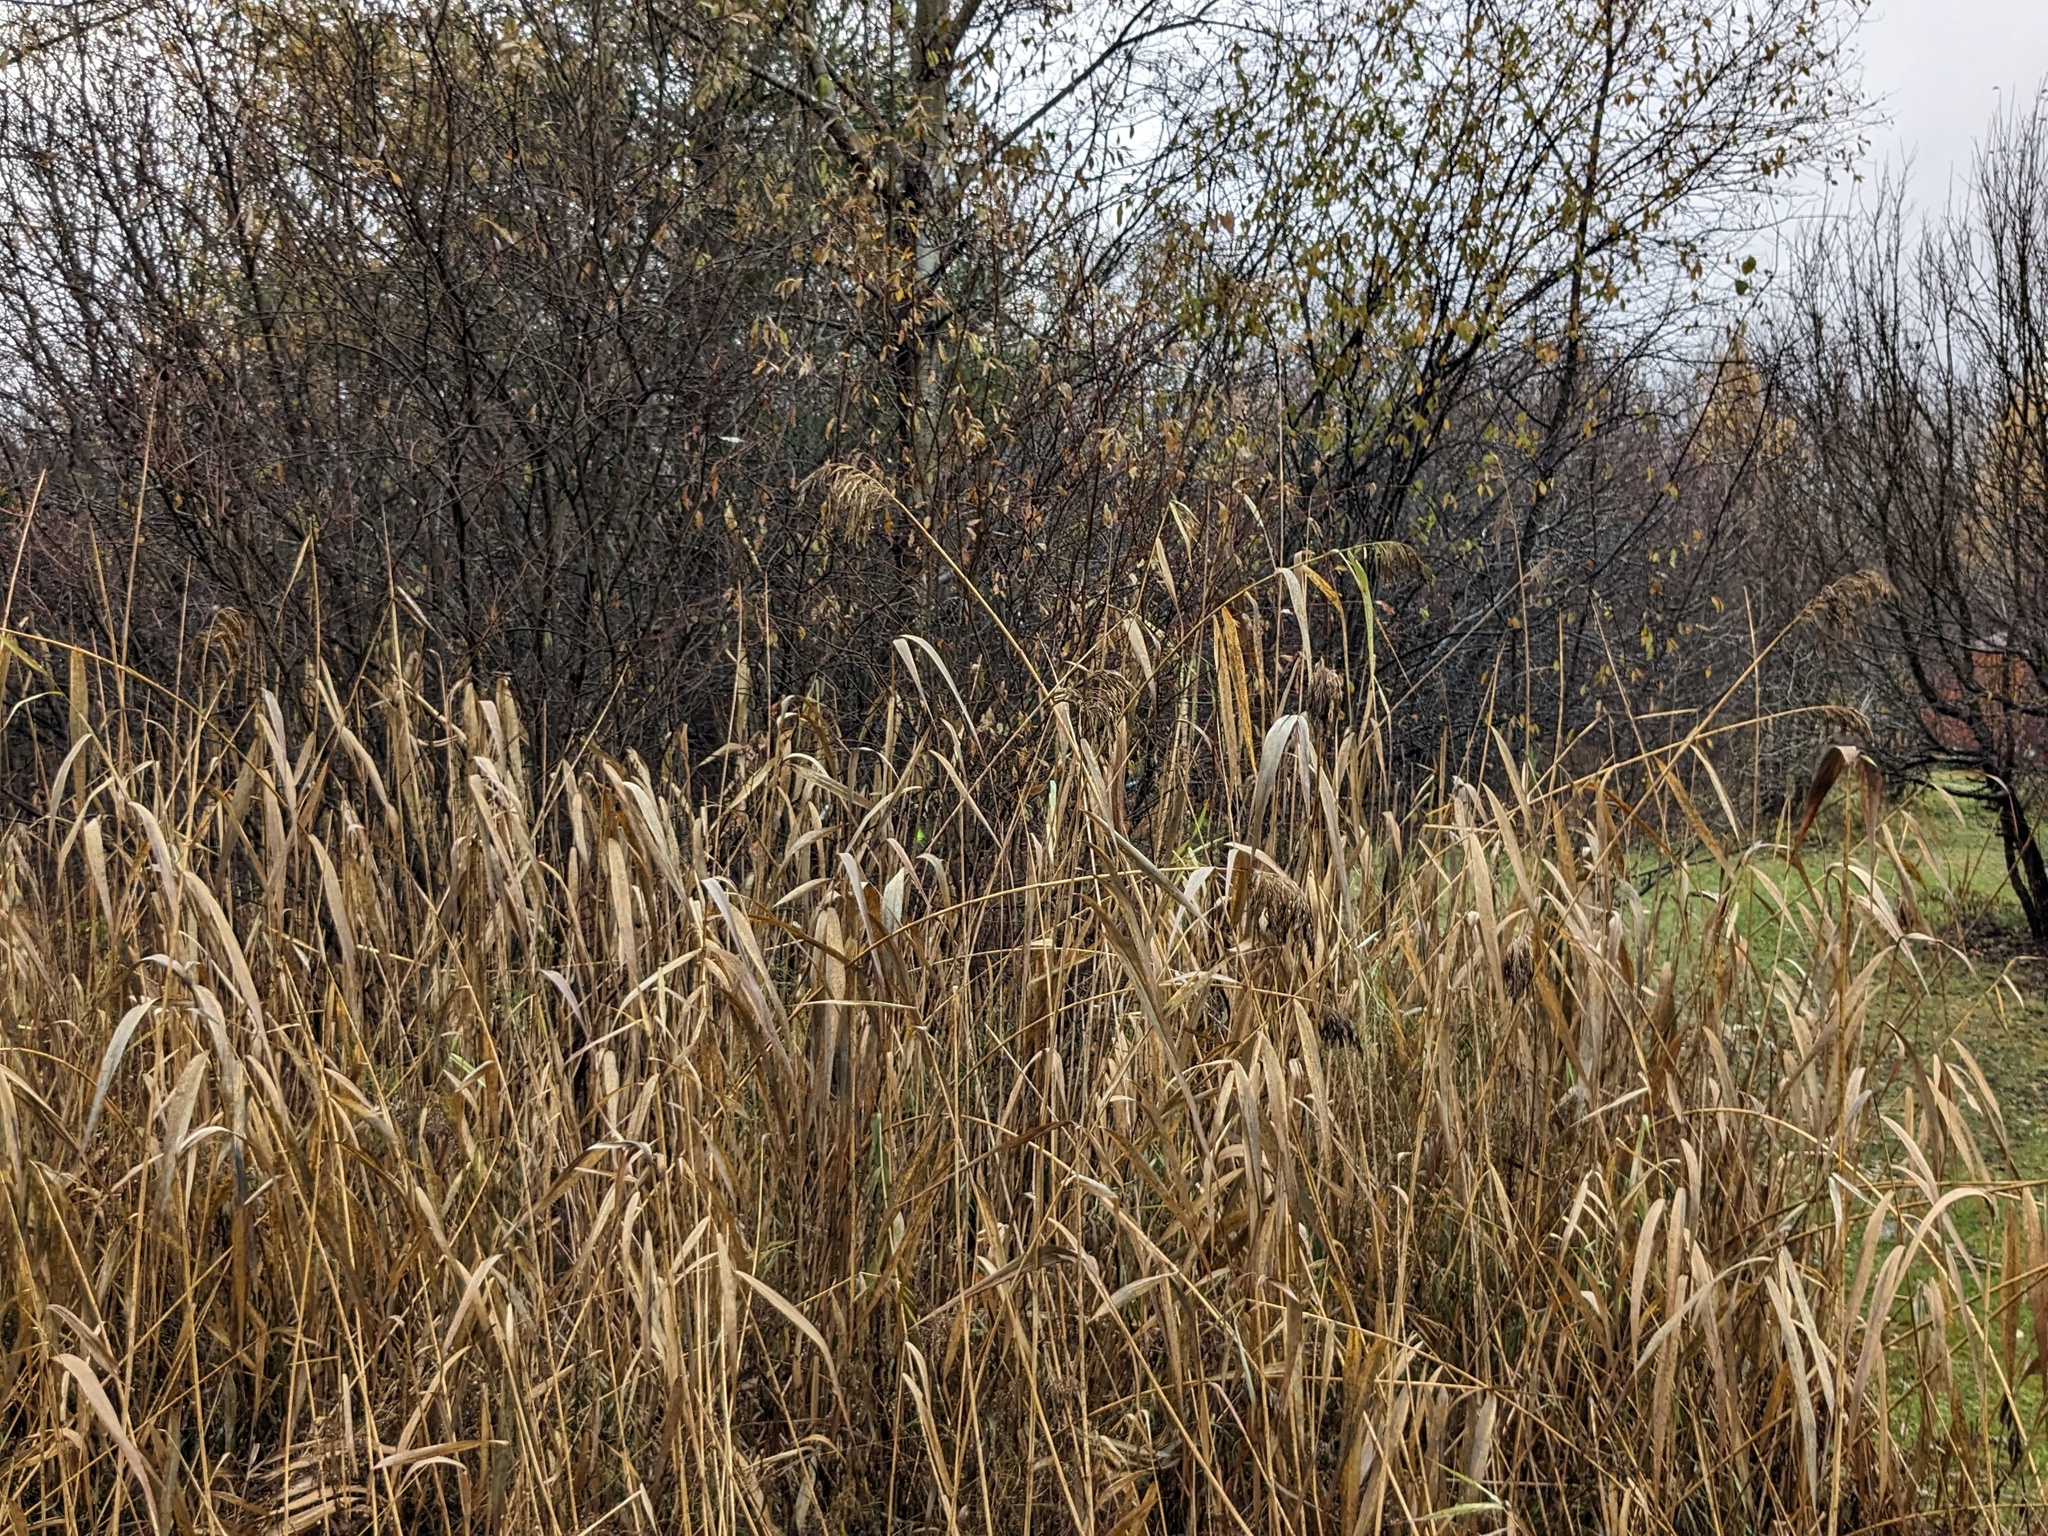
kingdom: Plantae
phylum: Tracheophyta
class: Liliopsida
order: Poales
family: Poaceae
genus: Phragmites
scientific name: Phragmites australis
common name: Common reed
